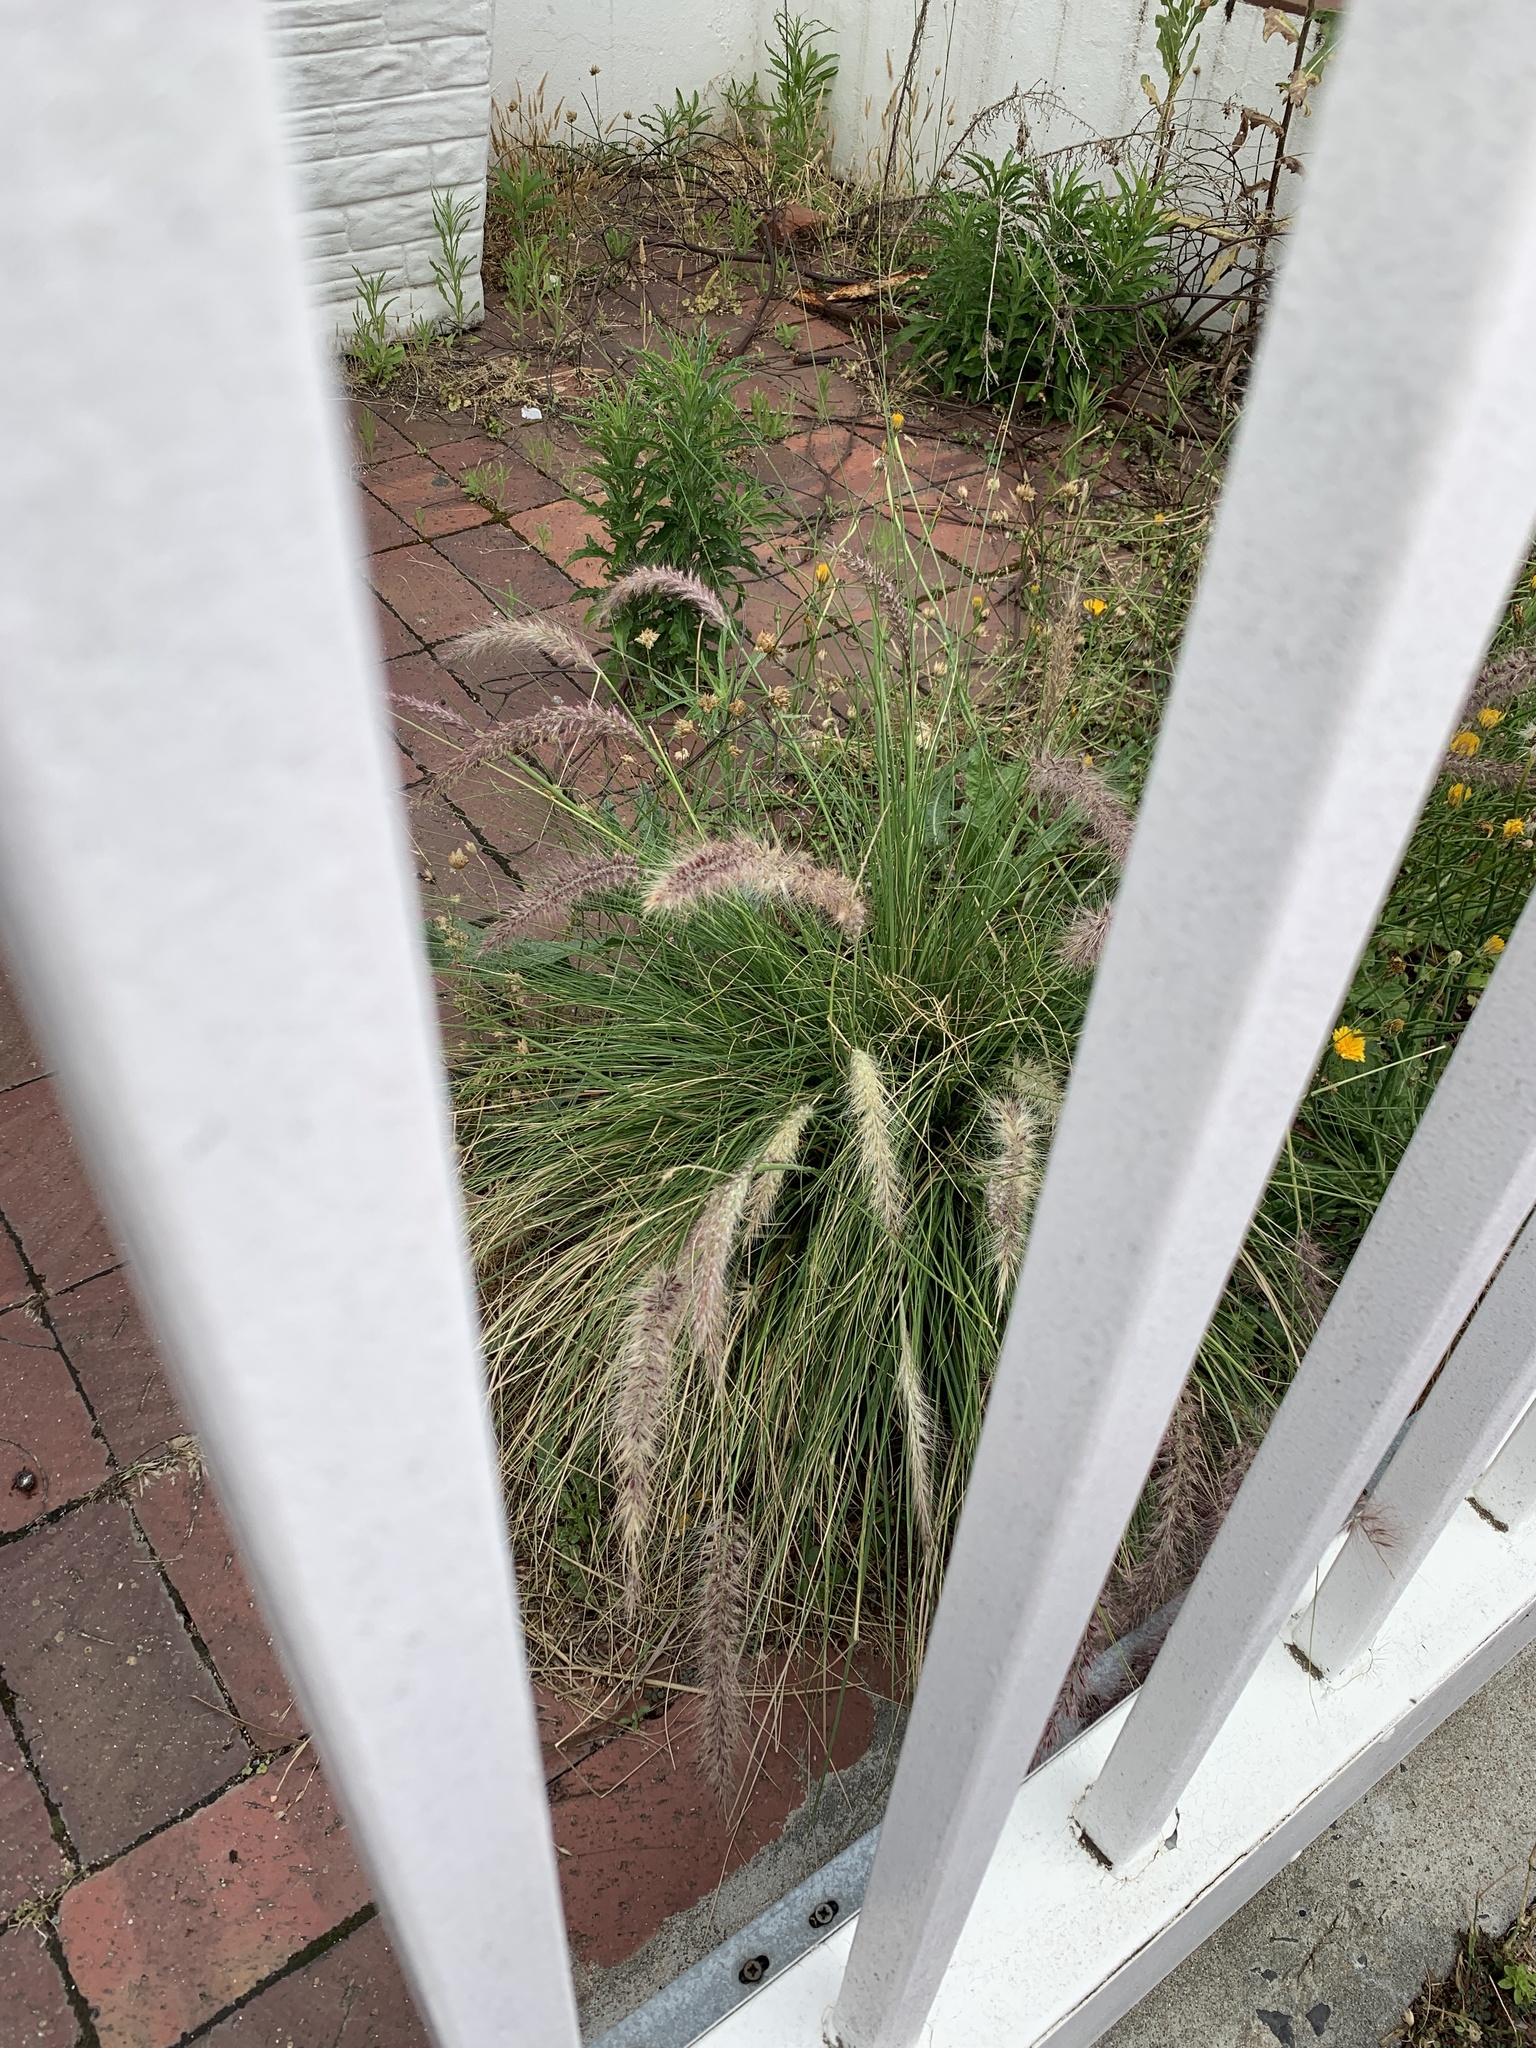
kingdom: Plantae
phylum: Tracheophyta
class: Liliopsida
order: Poales
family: Poaceae
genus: Cenchrus
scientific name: Cenchrus setaceus
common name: Crimson fountaingrass
